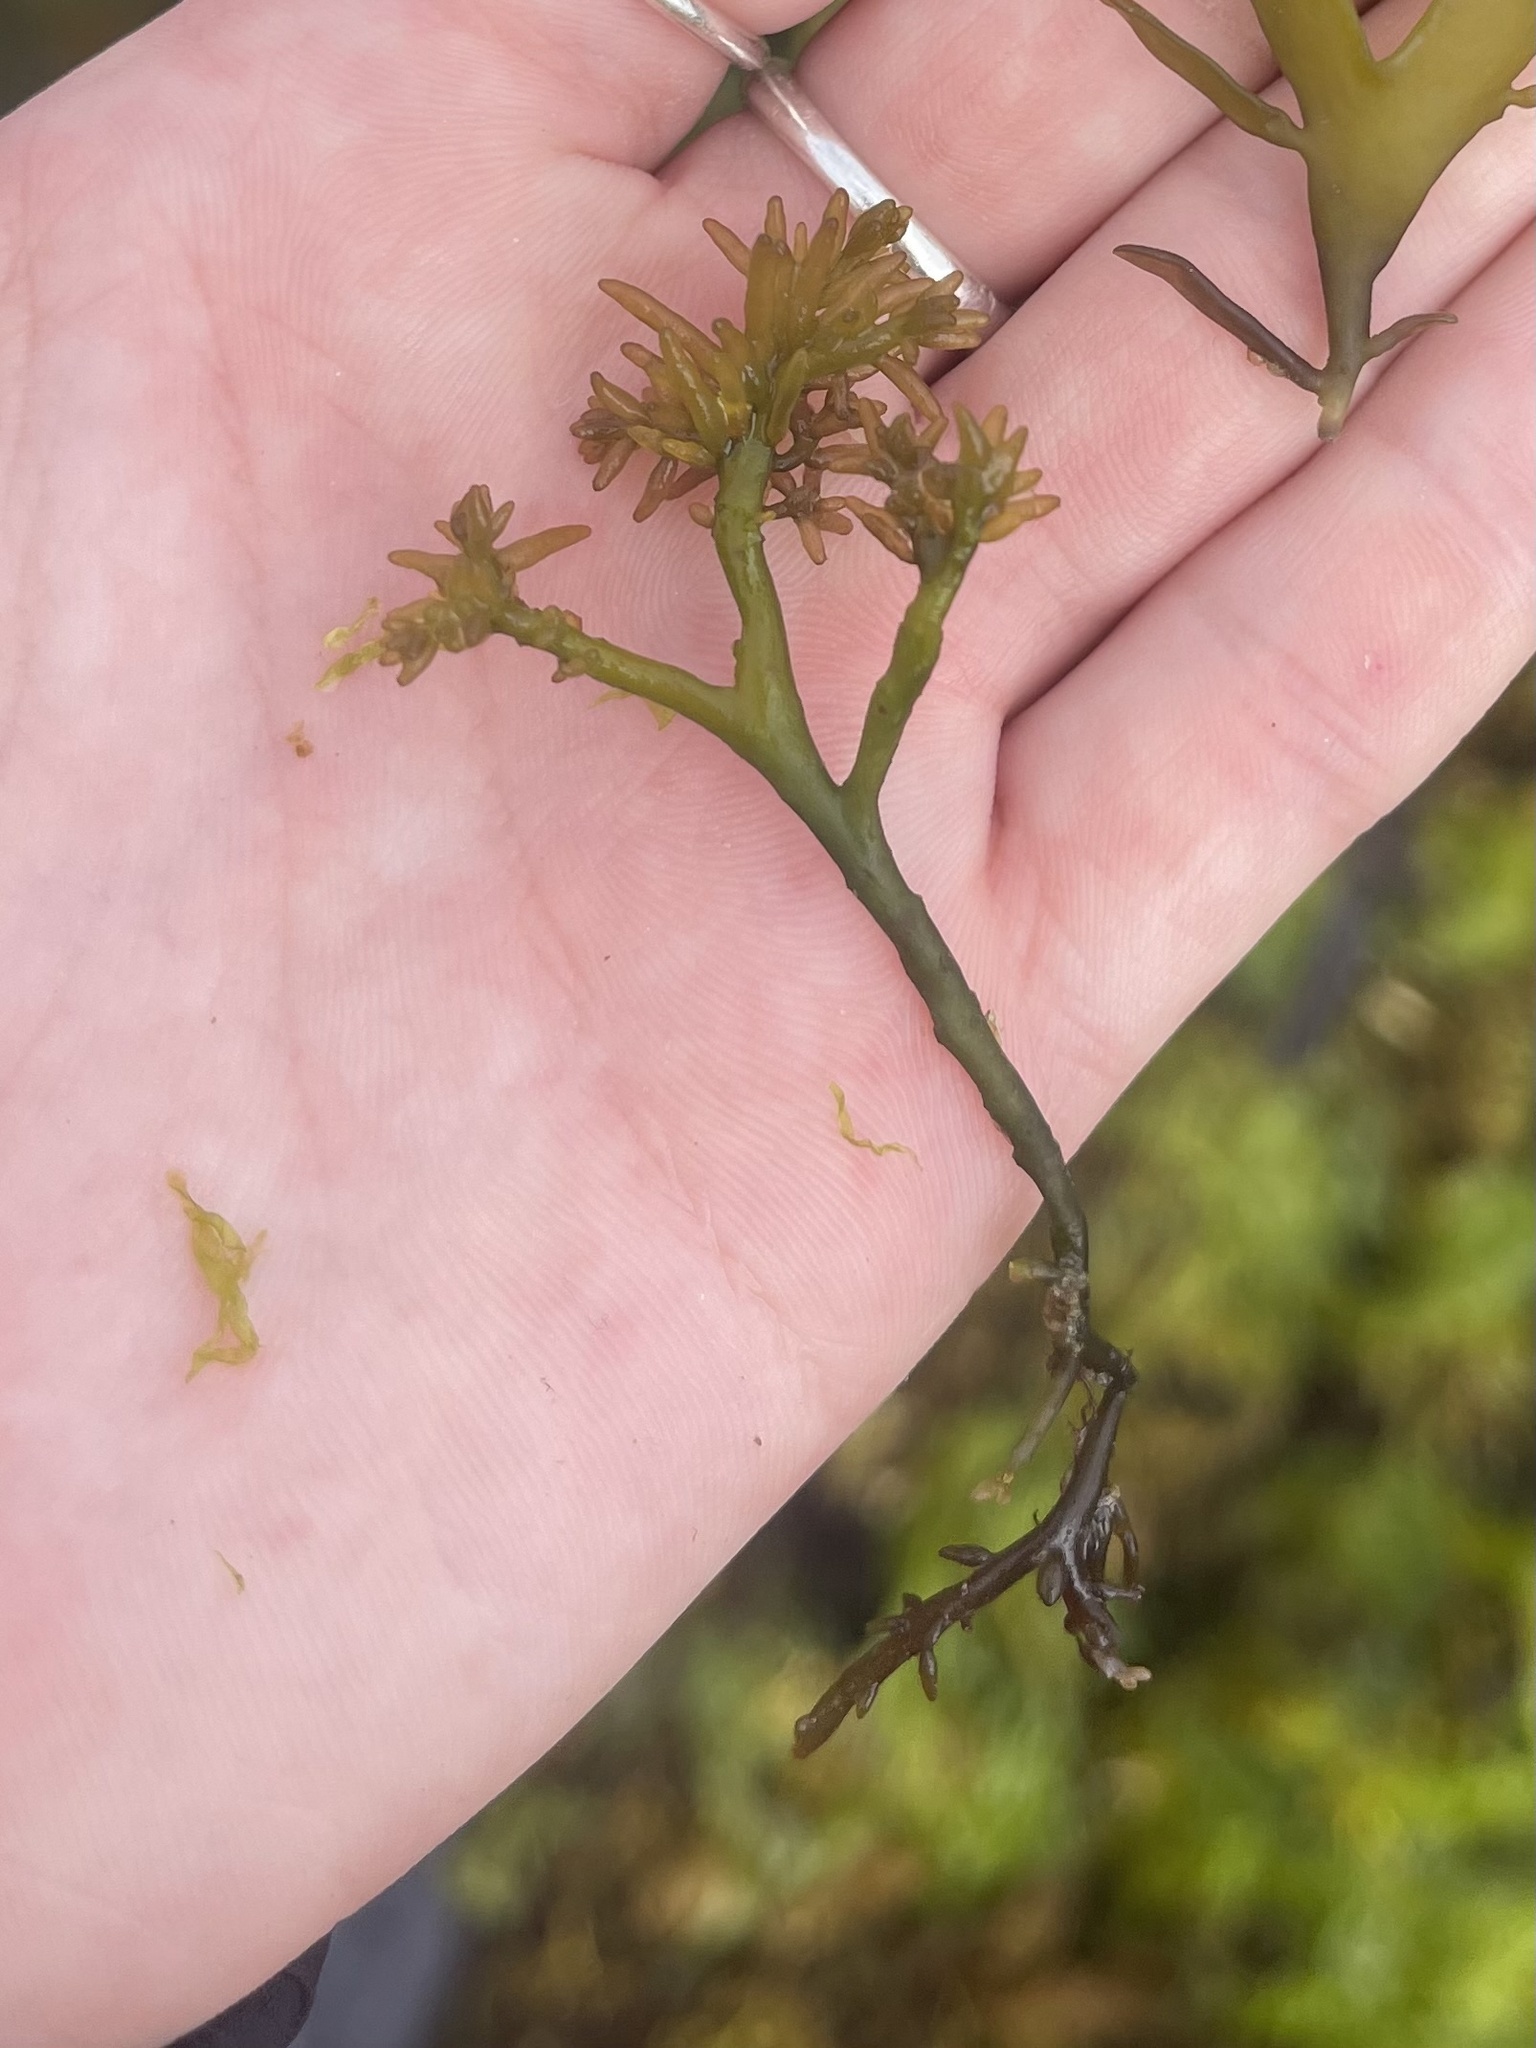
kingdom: Plantae
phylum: Rhodophyta
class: Florideophyceae
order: Rhodymeniales
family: Champiaceae
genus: Neogastroclonium
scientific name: Neogastroclonium subarticulatum
